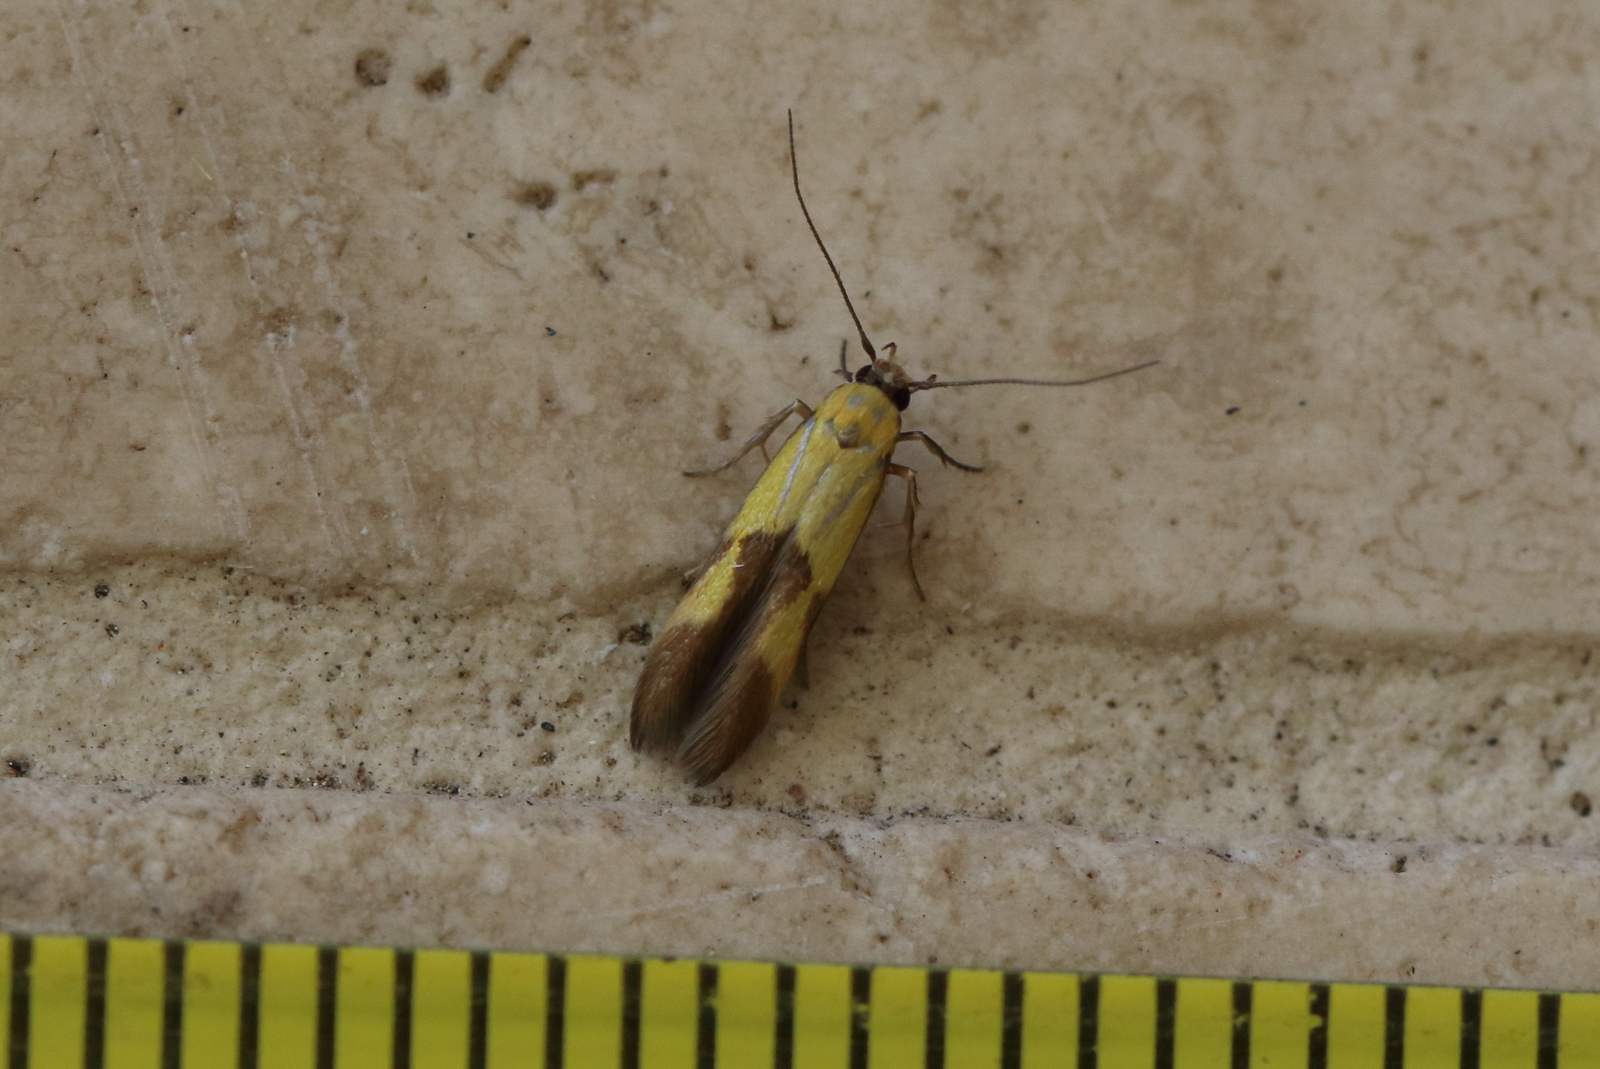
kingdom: Animalia
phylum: Arthropoda
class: Insecta
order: Lepidoptera
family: Stathmopodidae
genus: Stathmopoda
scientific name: Stathmopoda auriferella
